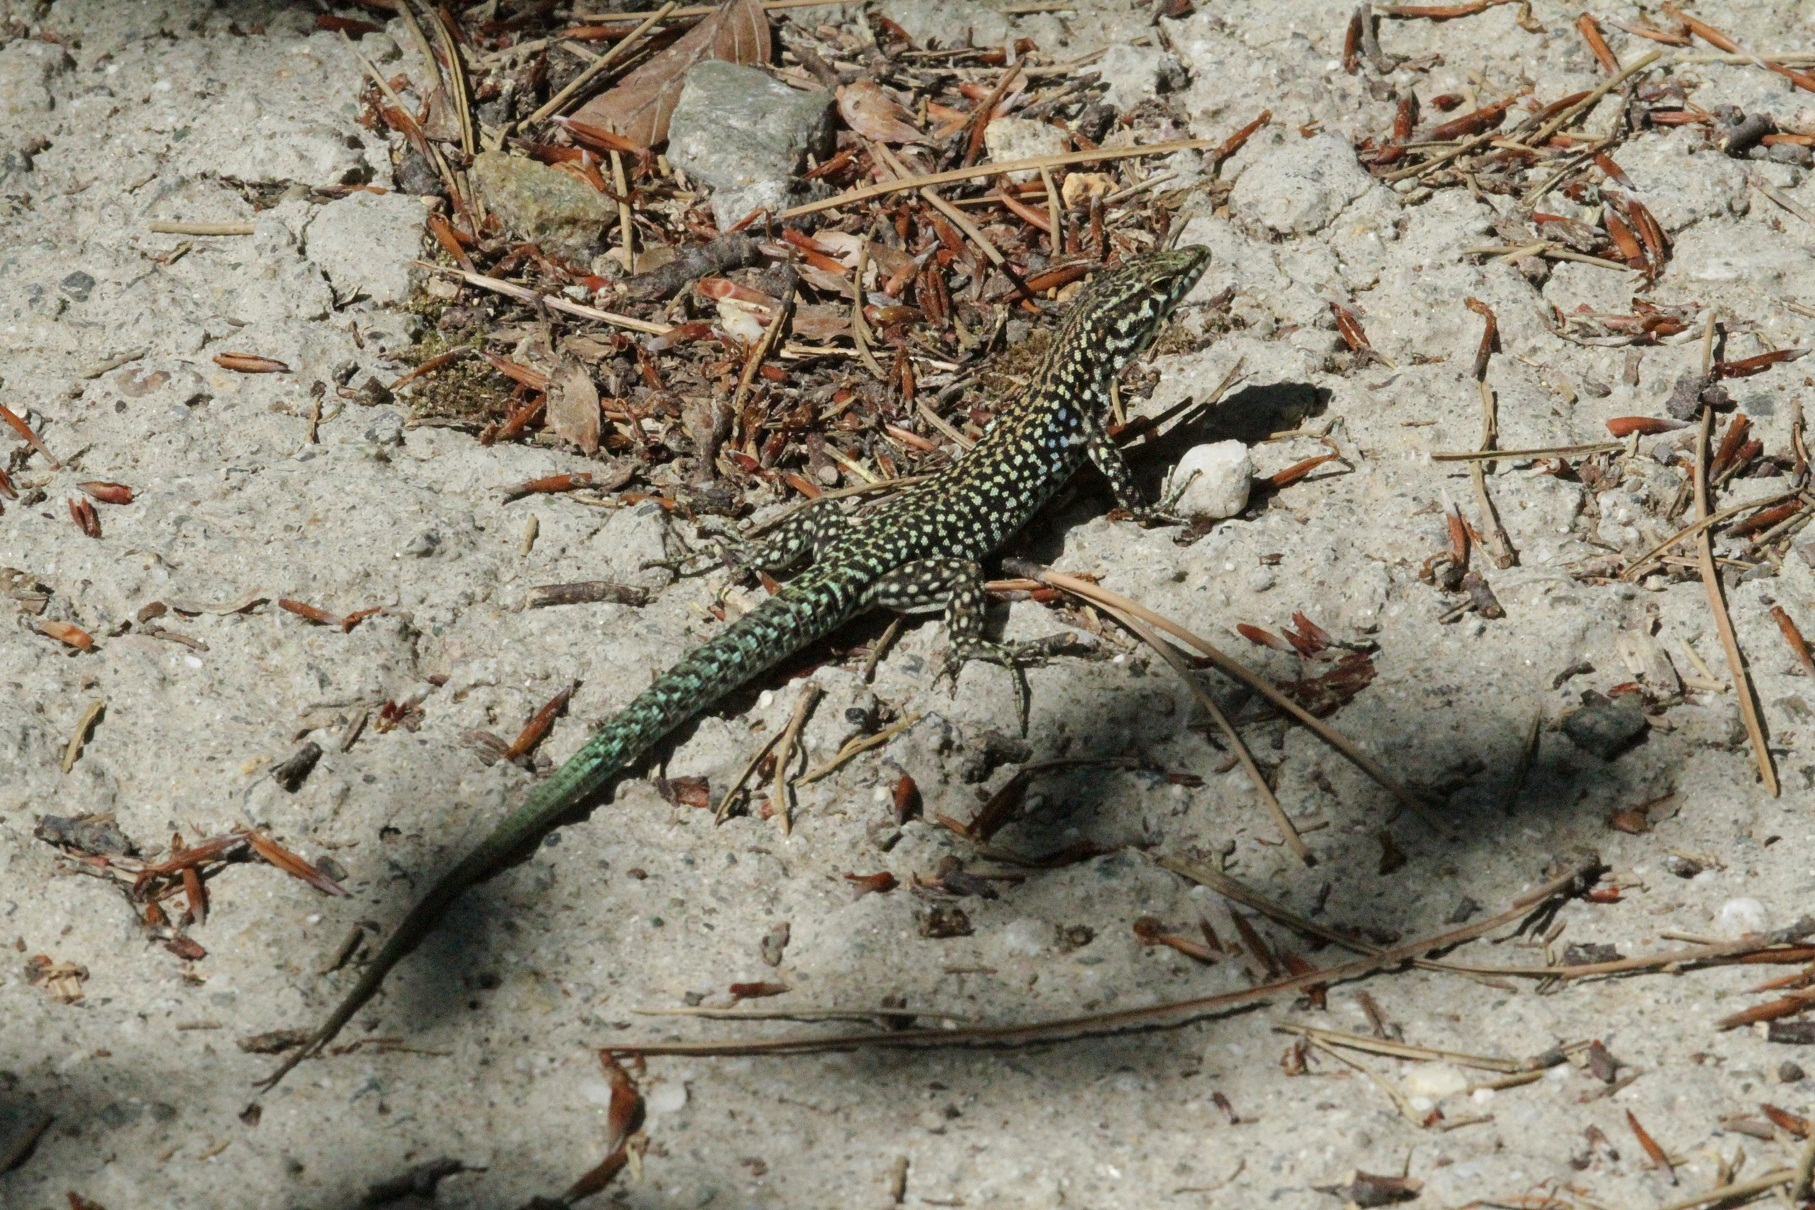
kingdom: Animalia
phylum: Chordata
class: Squamata
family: Lacertidae
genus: Podarcis
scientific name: Podarcis tiliguerta
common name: Tyrrhenian wall lizard
